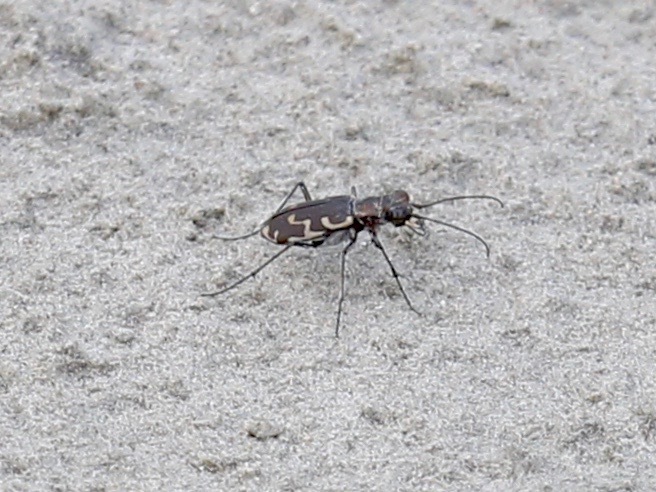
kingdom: Animalia
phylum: Arthropoda
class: Insecta
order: Coleoptera
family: Carabidae
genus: Cicindela
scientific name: Cicindela repanda
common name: Bronzed tiger beetle
